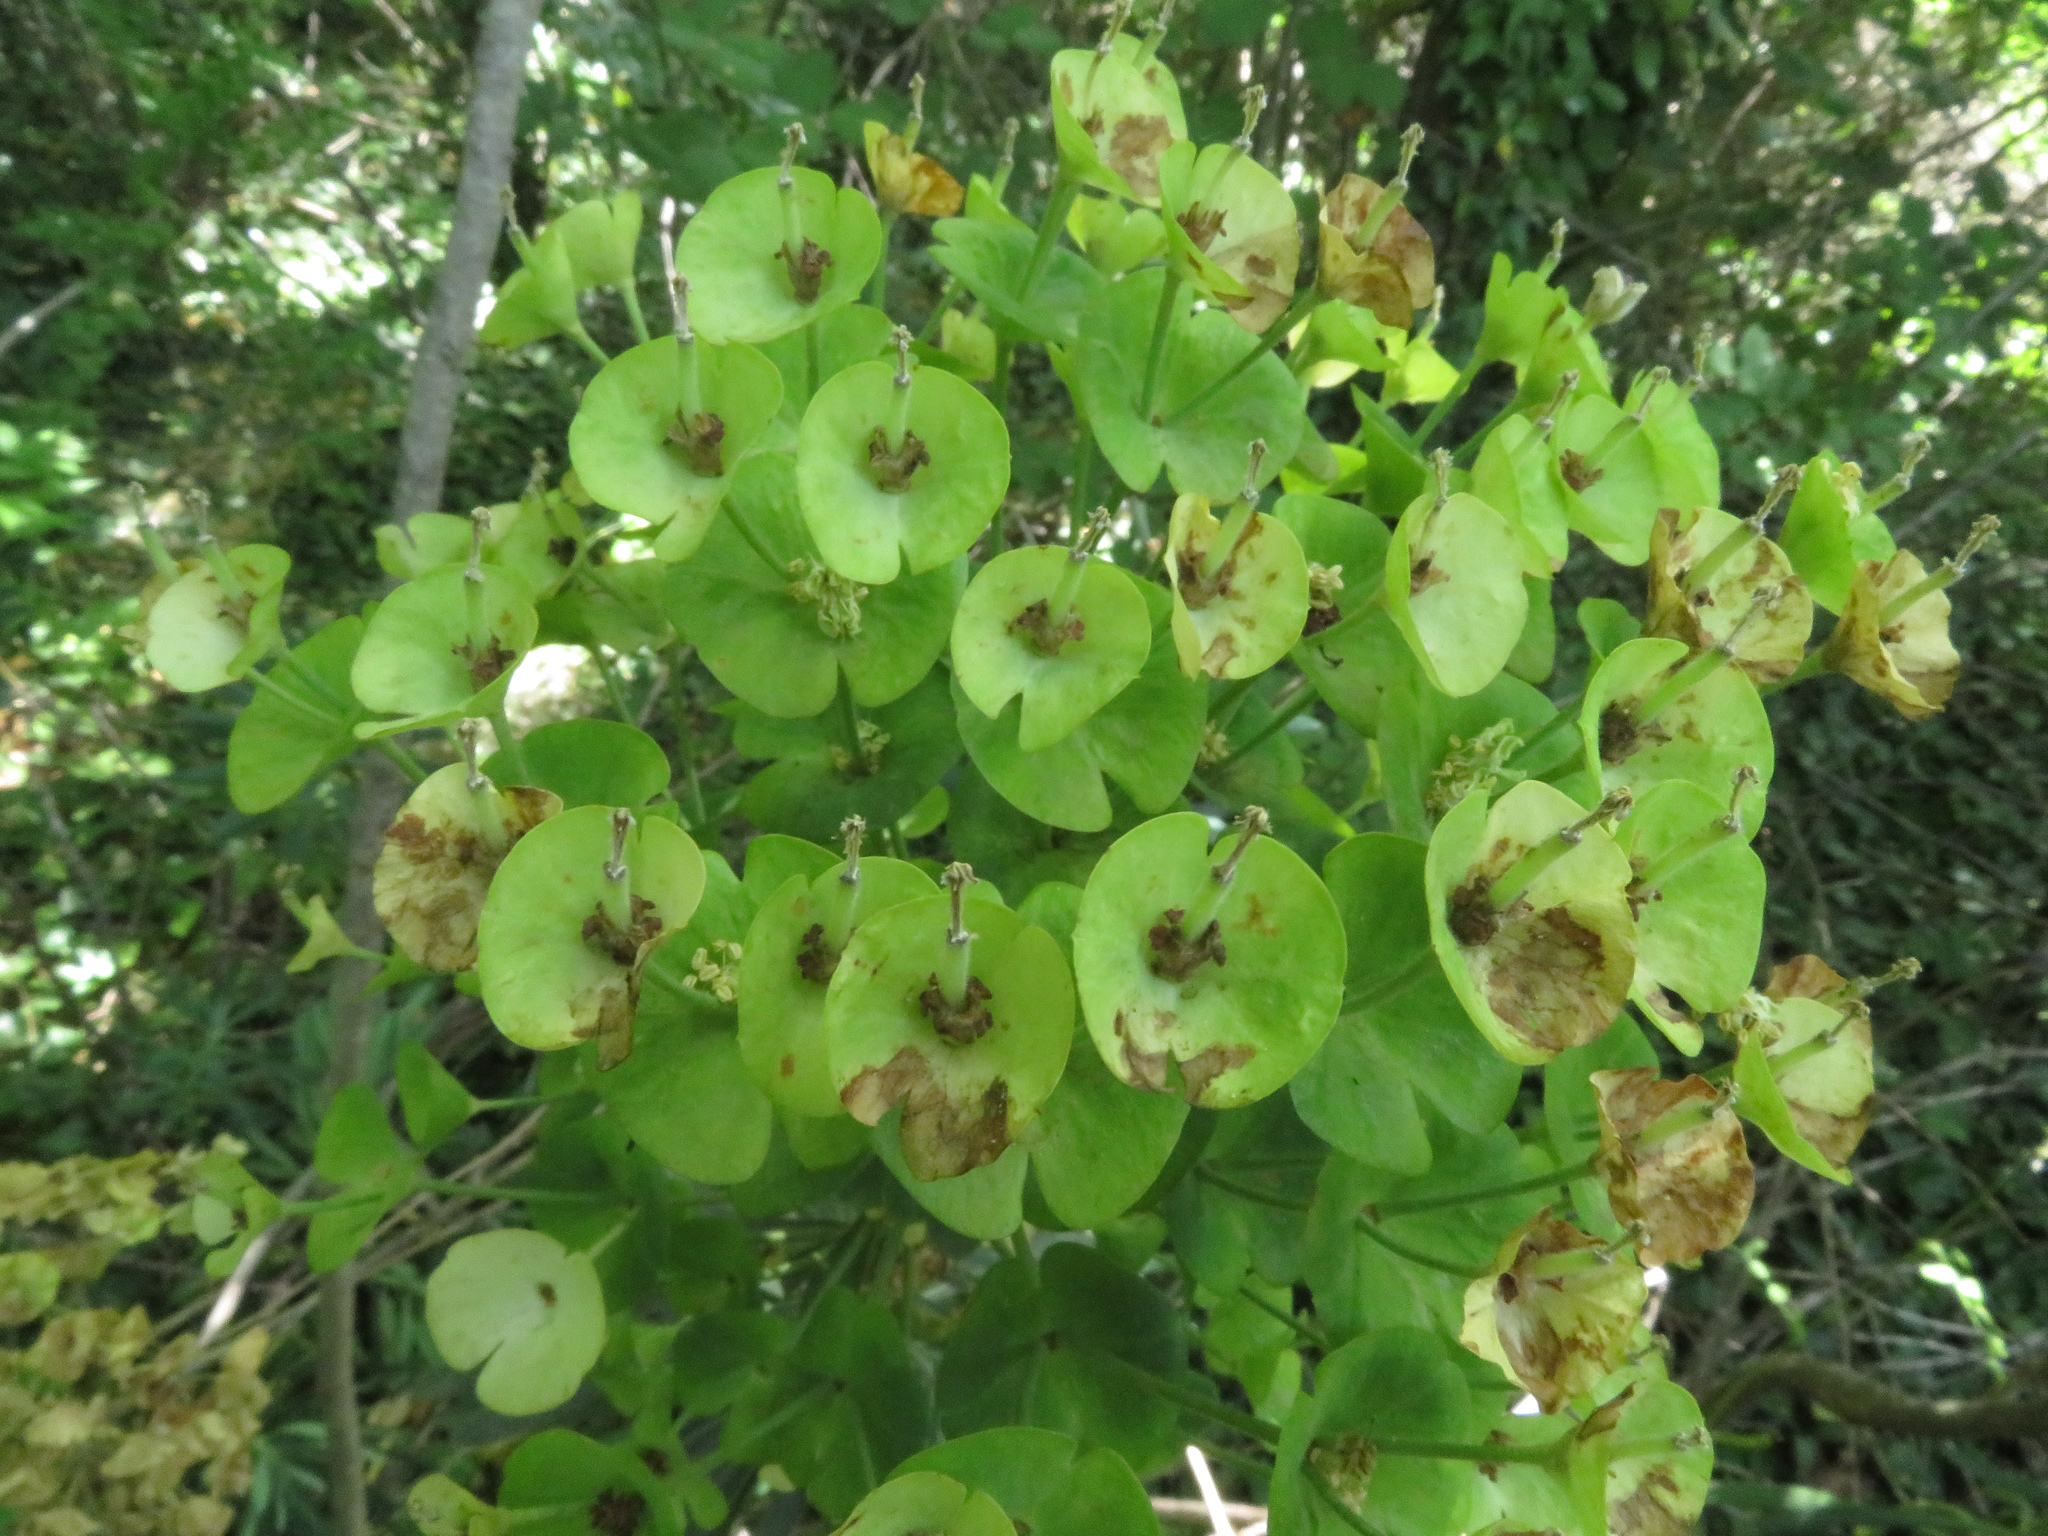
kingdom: Plantae
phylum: Tracheophyta
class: Magnoliopsida
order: Malpighiales
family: Euphorbiaceae
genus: Euphorbia
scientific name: Euphorbia characias
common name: Mediterranean spurge
